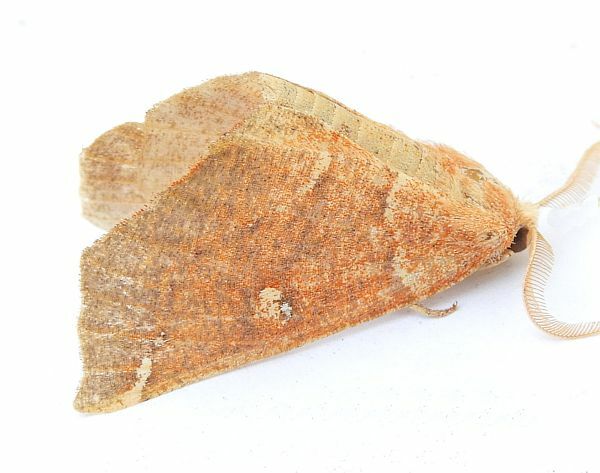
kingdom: Animalia
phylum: Arthropoda
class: Insecta
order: Lepidoptera
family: Geometridae
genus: Caripeta
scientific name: Caripeta macularia
